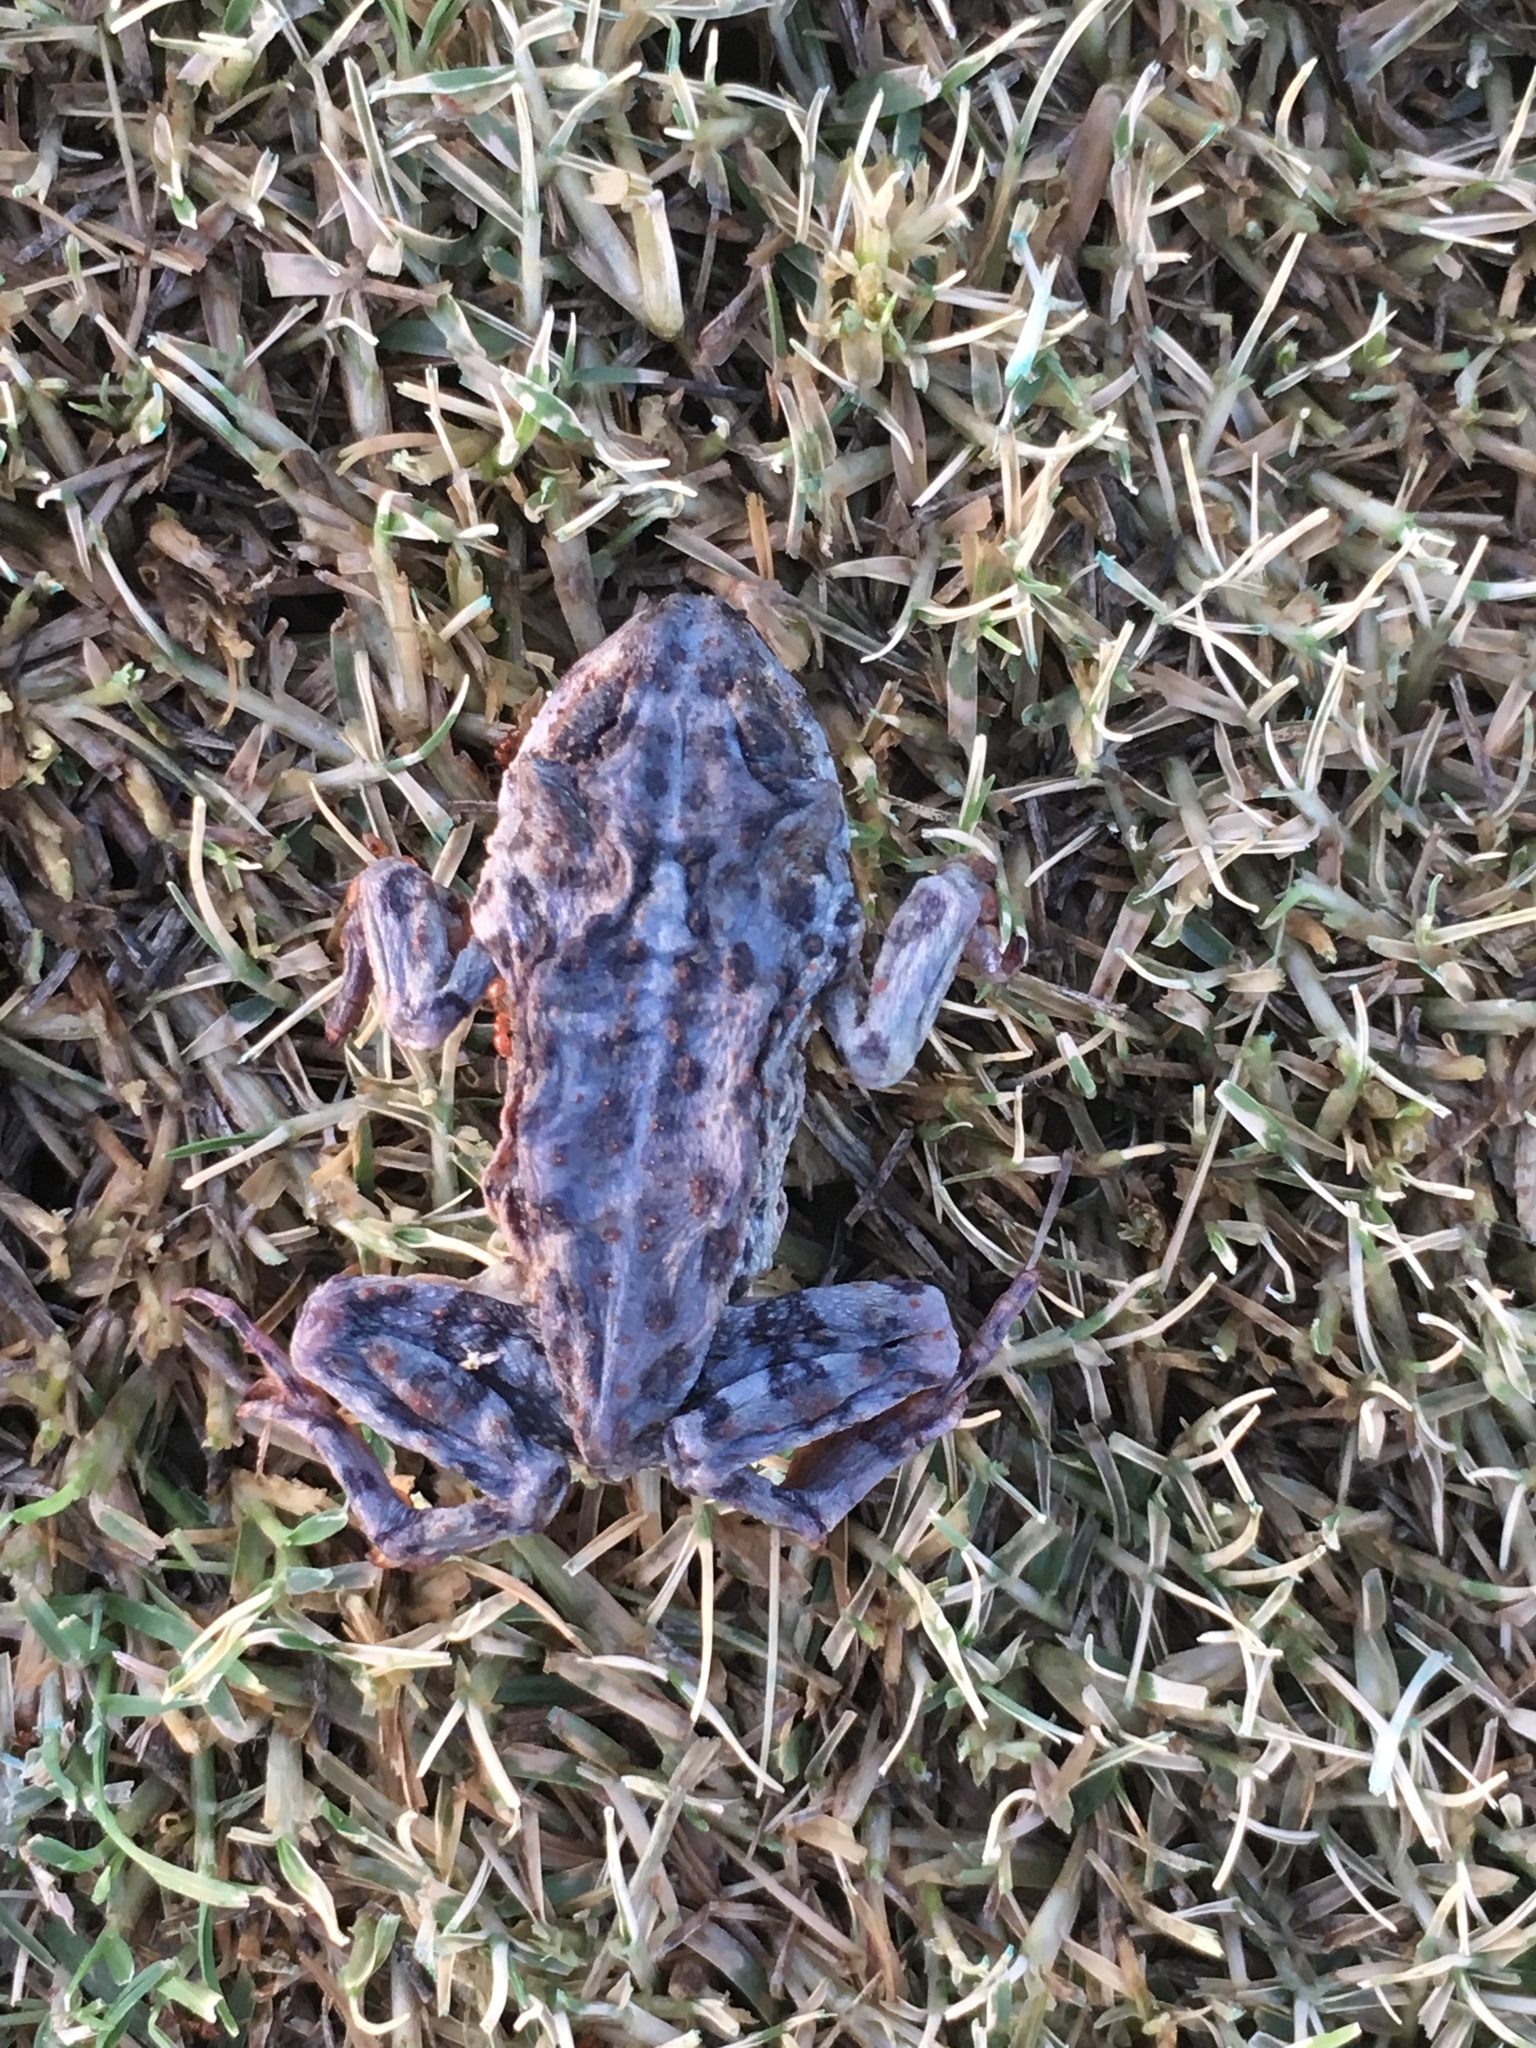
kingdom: Animalia
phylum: Chordata
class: Amphibia
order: Anura
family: Bufonidae
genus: Anaxyrus
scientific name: Anaxyrus boreas
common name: Western toad
